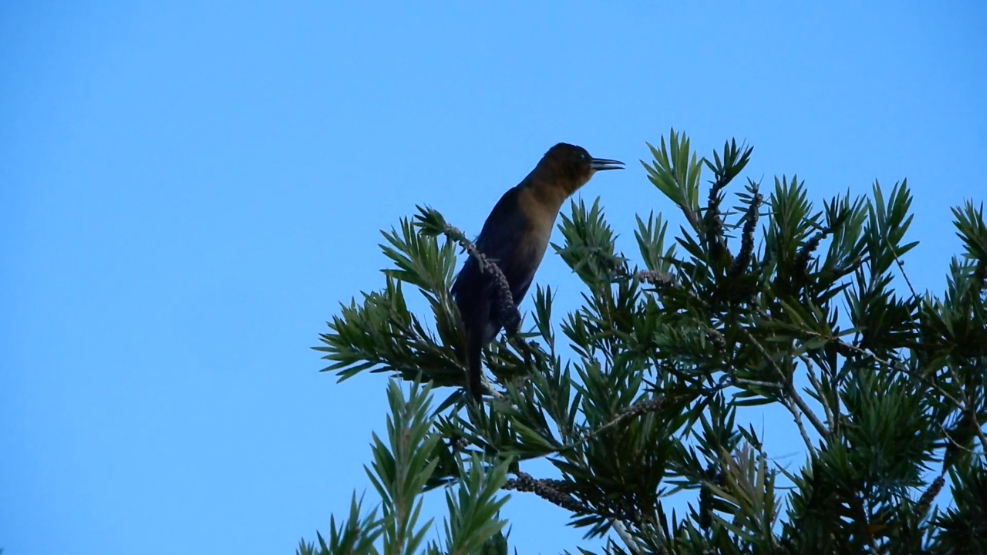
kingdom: Animalia
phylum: Chordata
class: Aves
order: Passeriformes
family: Icteridae
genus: Quiscalus
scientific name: Quiscalus major
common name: Boat-tailed grackle
